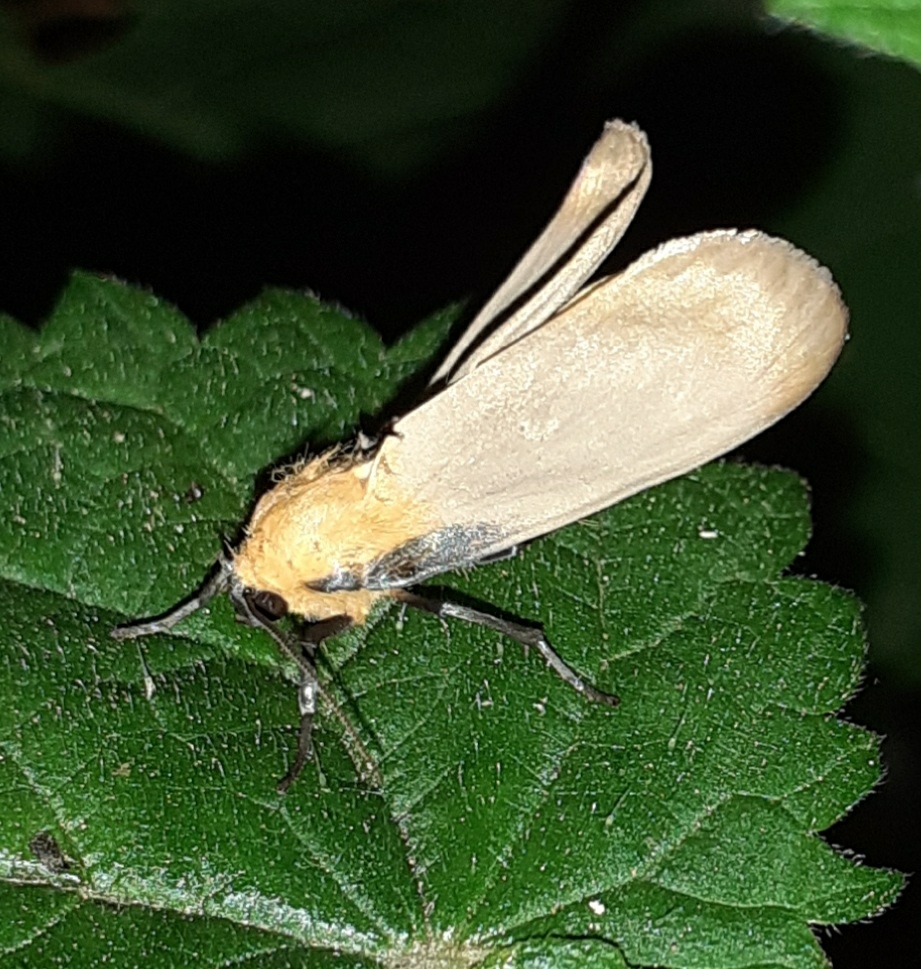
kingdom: Animalia
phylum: Arthropoda
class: Insecta
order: Lepidoptera
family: Erebidae
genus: Lithosia
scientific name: Lithosia quadra
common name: Four-spotted footman
